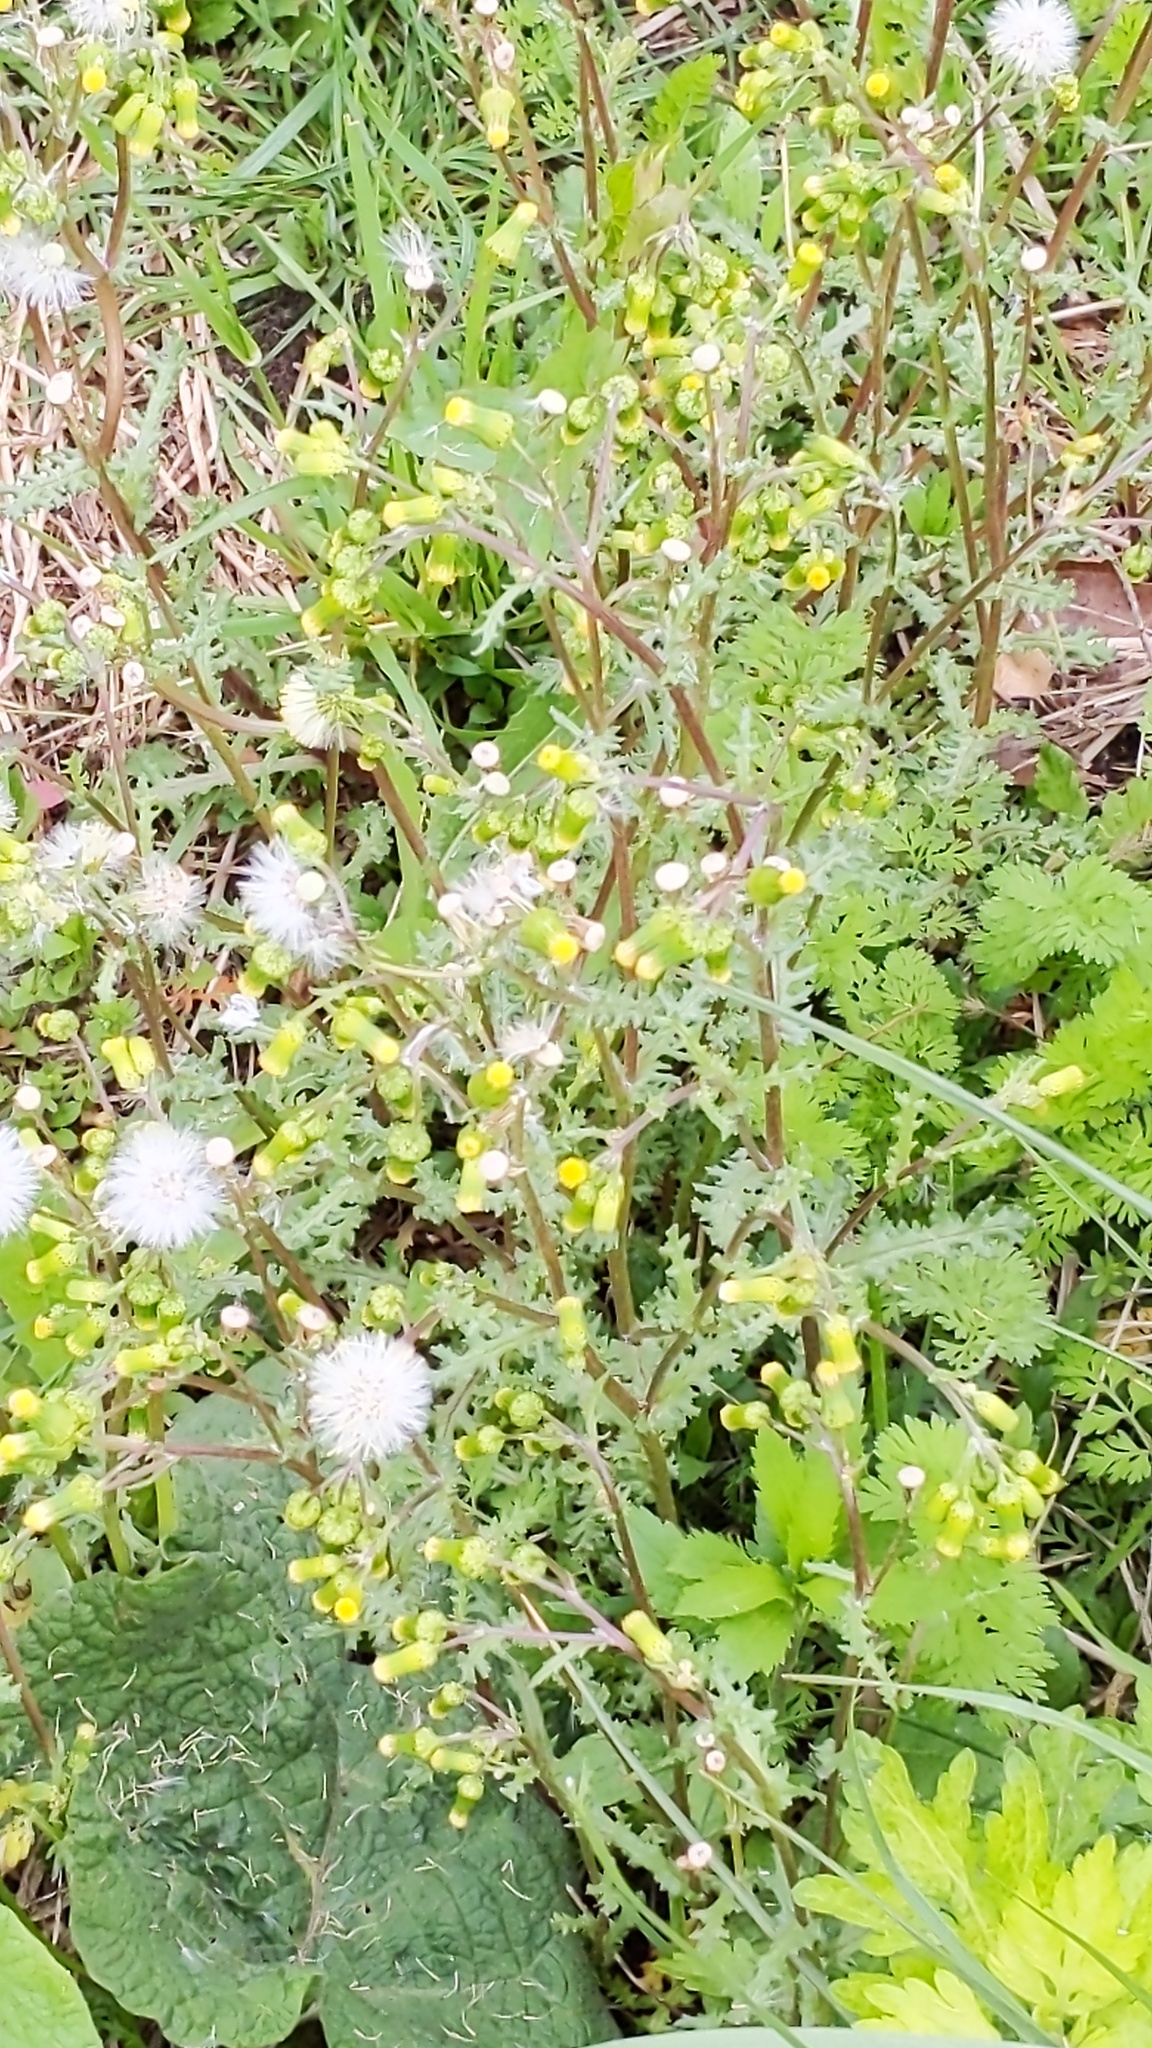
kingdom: Plantae
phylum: Tracheophyta
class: Magnoliopsida
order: Asterales
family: Asteraceae
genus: Senecio
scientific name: Senecio vulgaris
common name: Old-man-in-the-spring
